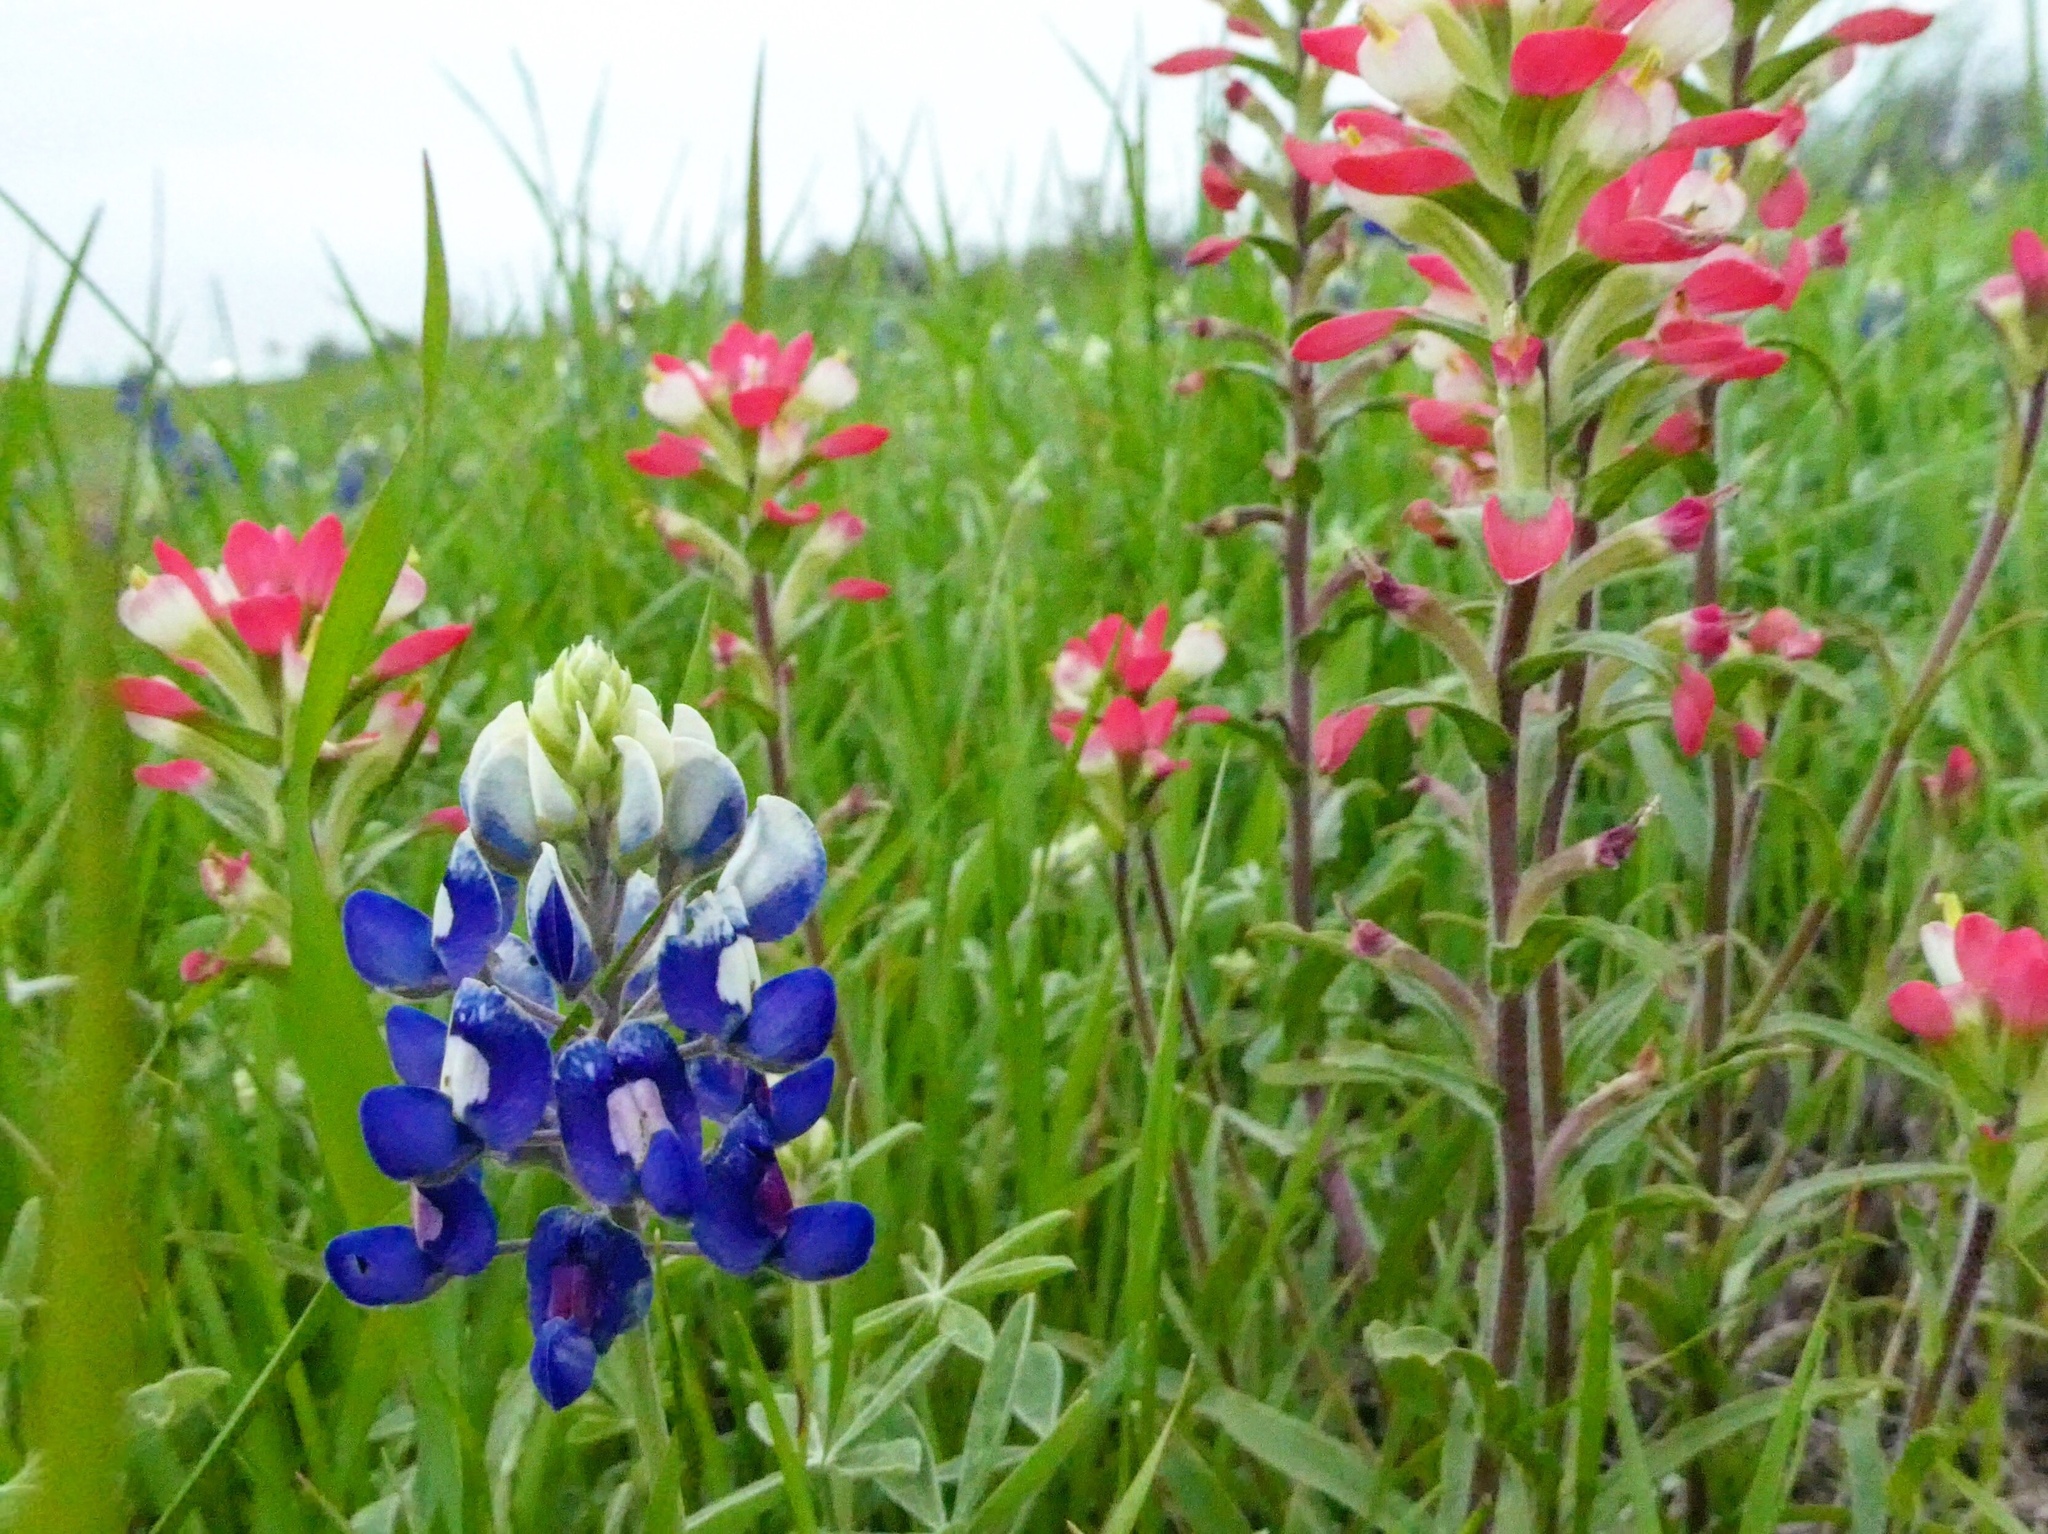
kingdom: Plantae
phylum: Tracheophyta
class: Magnoliopsida
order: Fabales
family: Fabaceae
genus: Lupinus
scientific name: Lupinus texensis
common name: Texas bluebonnet
